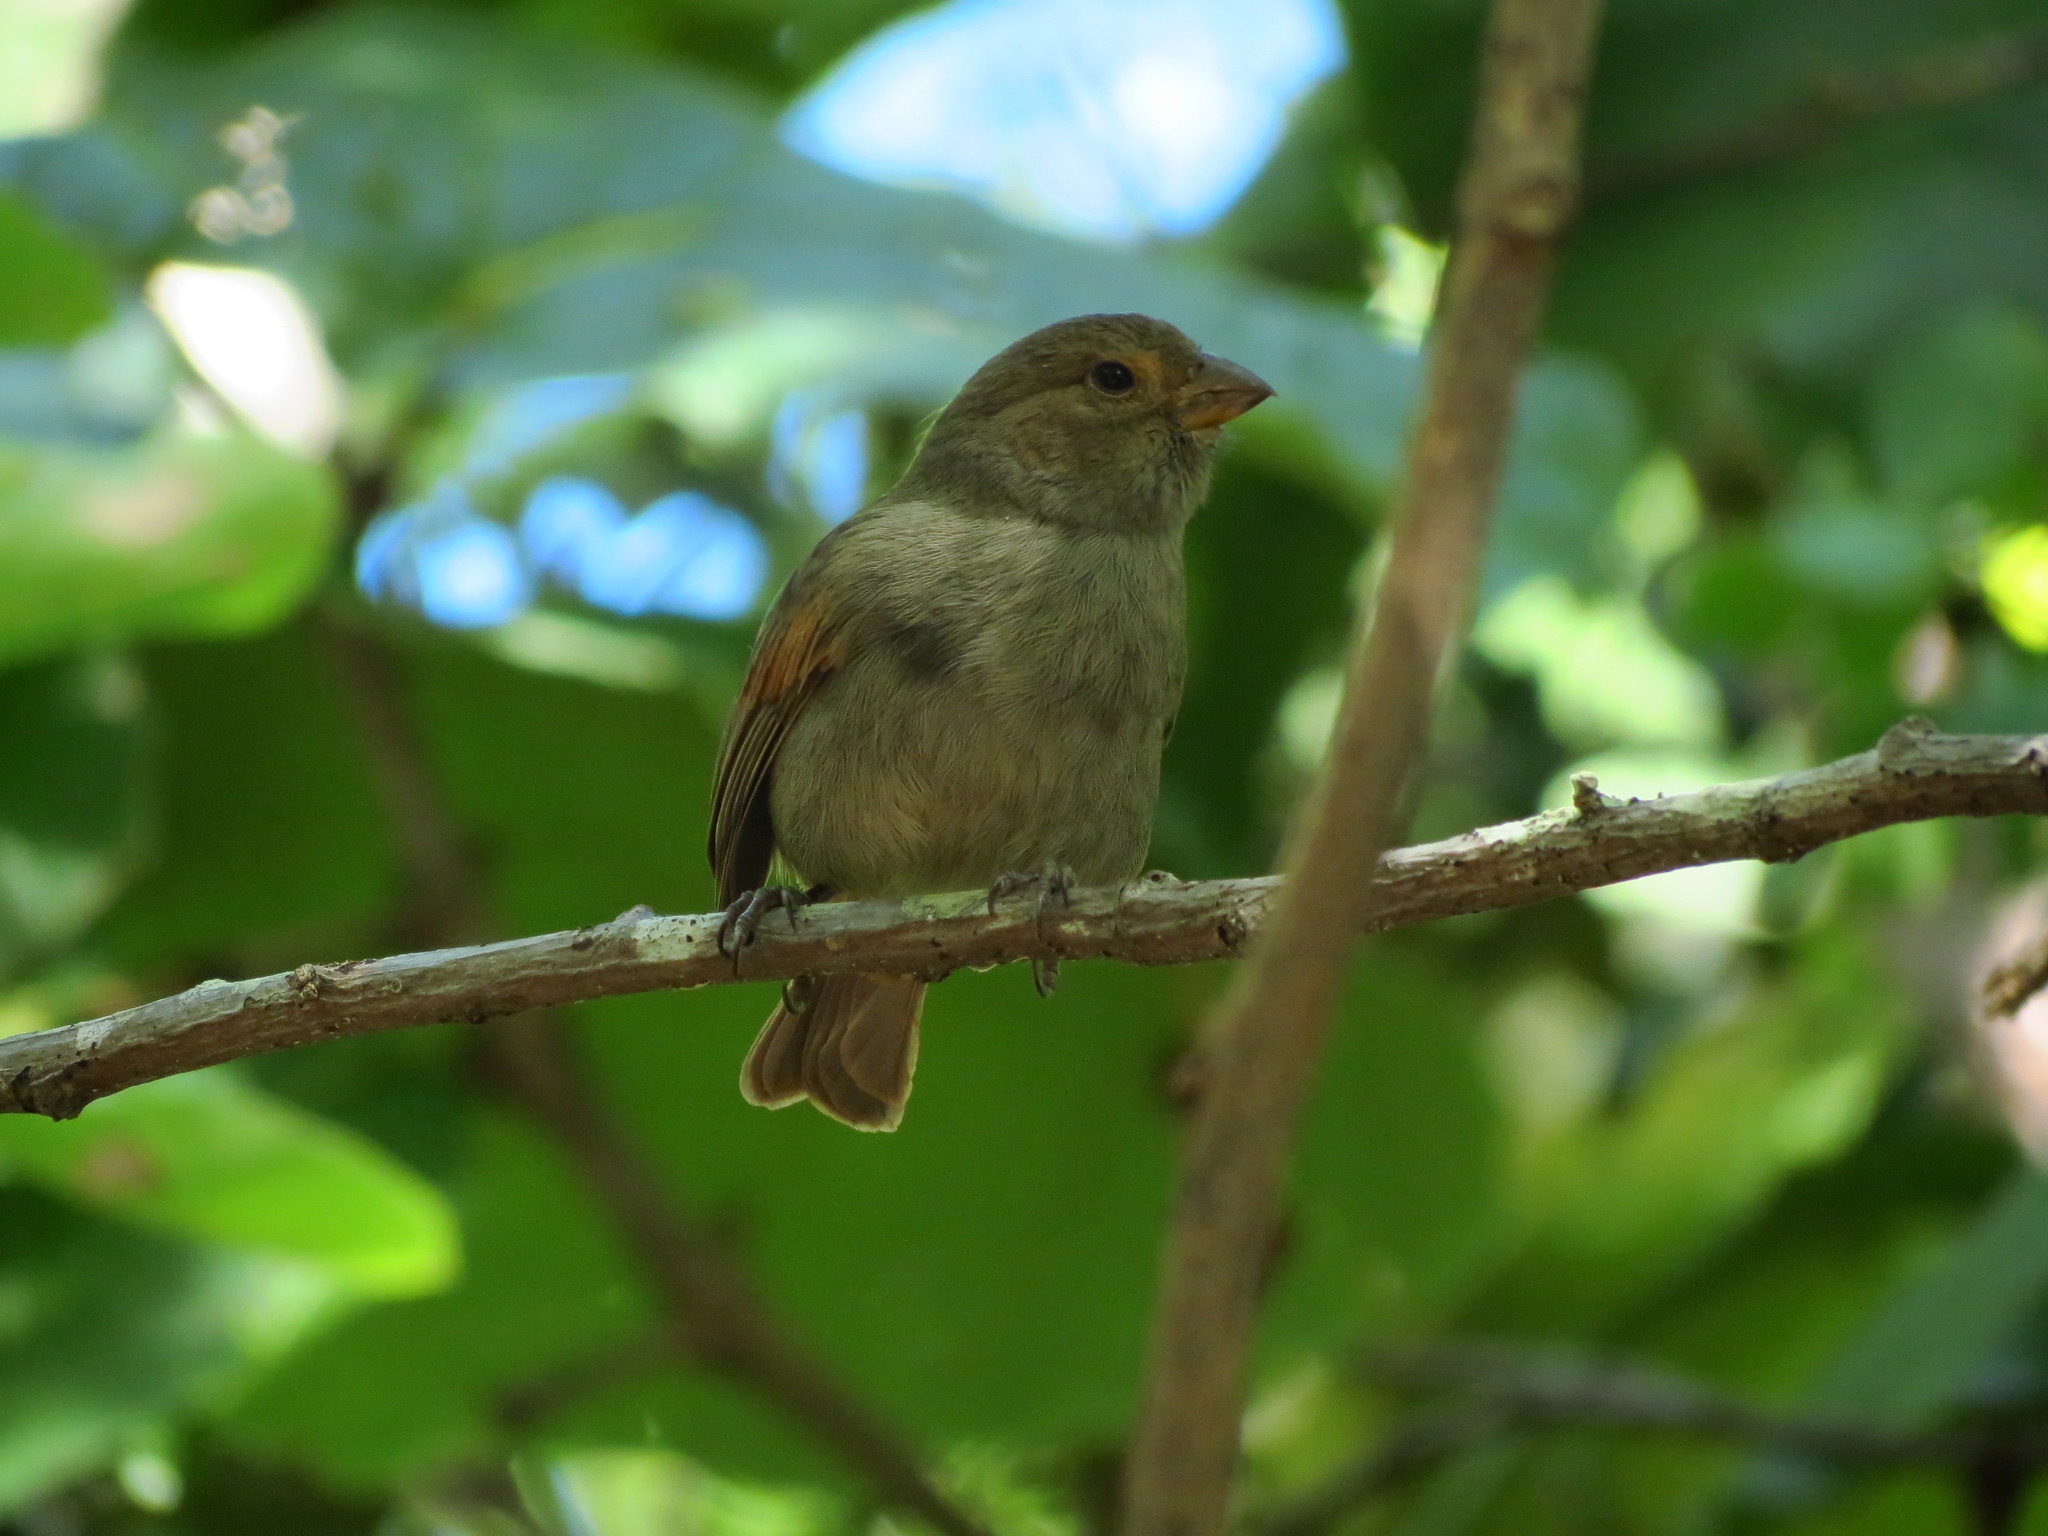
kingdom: Animalia
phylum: Chordata
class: Aves
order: Passeriformes
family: Thraupidae
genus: Loxigilla
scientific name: Loxigilla noctis
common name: Lesser antillean bullfinch
